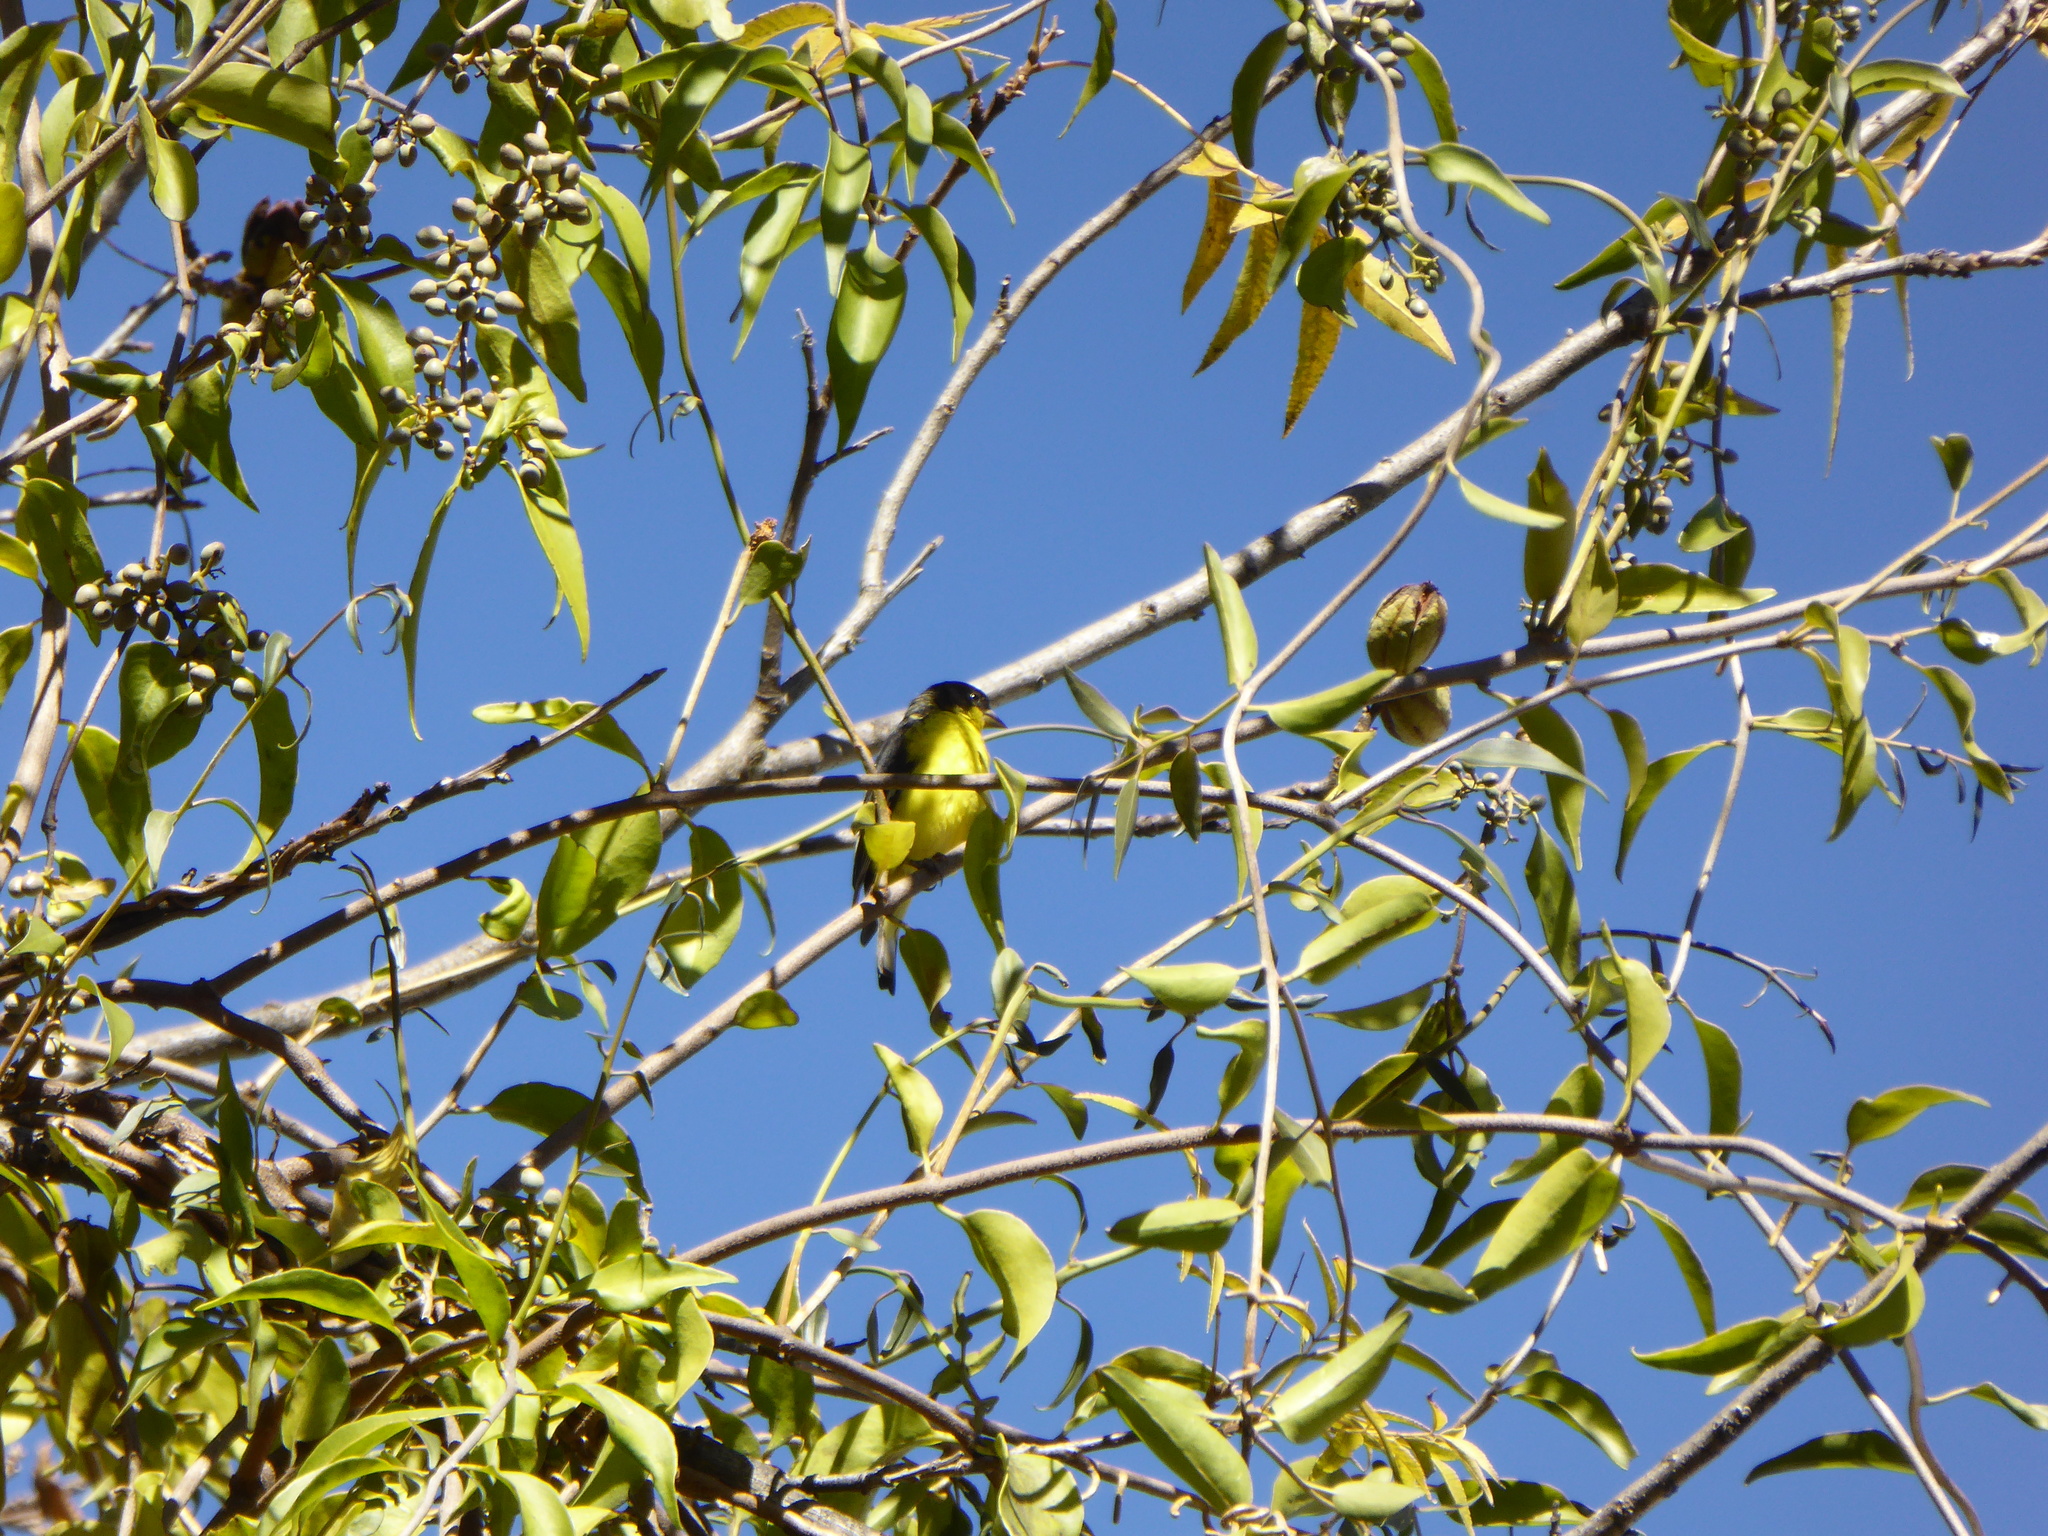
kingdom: Animalia
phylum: Chordata
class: Aves
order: Passeriformes
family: Fringillidae
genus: Spinus
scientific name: Spinus psaltria
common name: Lesser goldfinch
